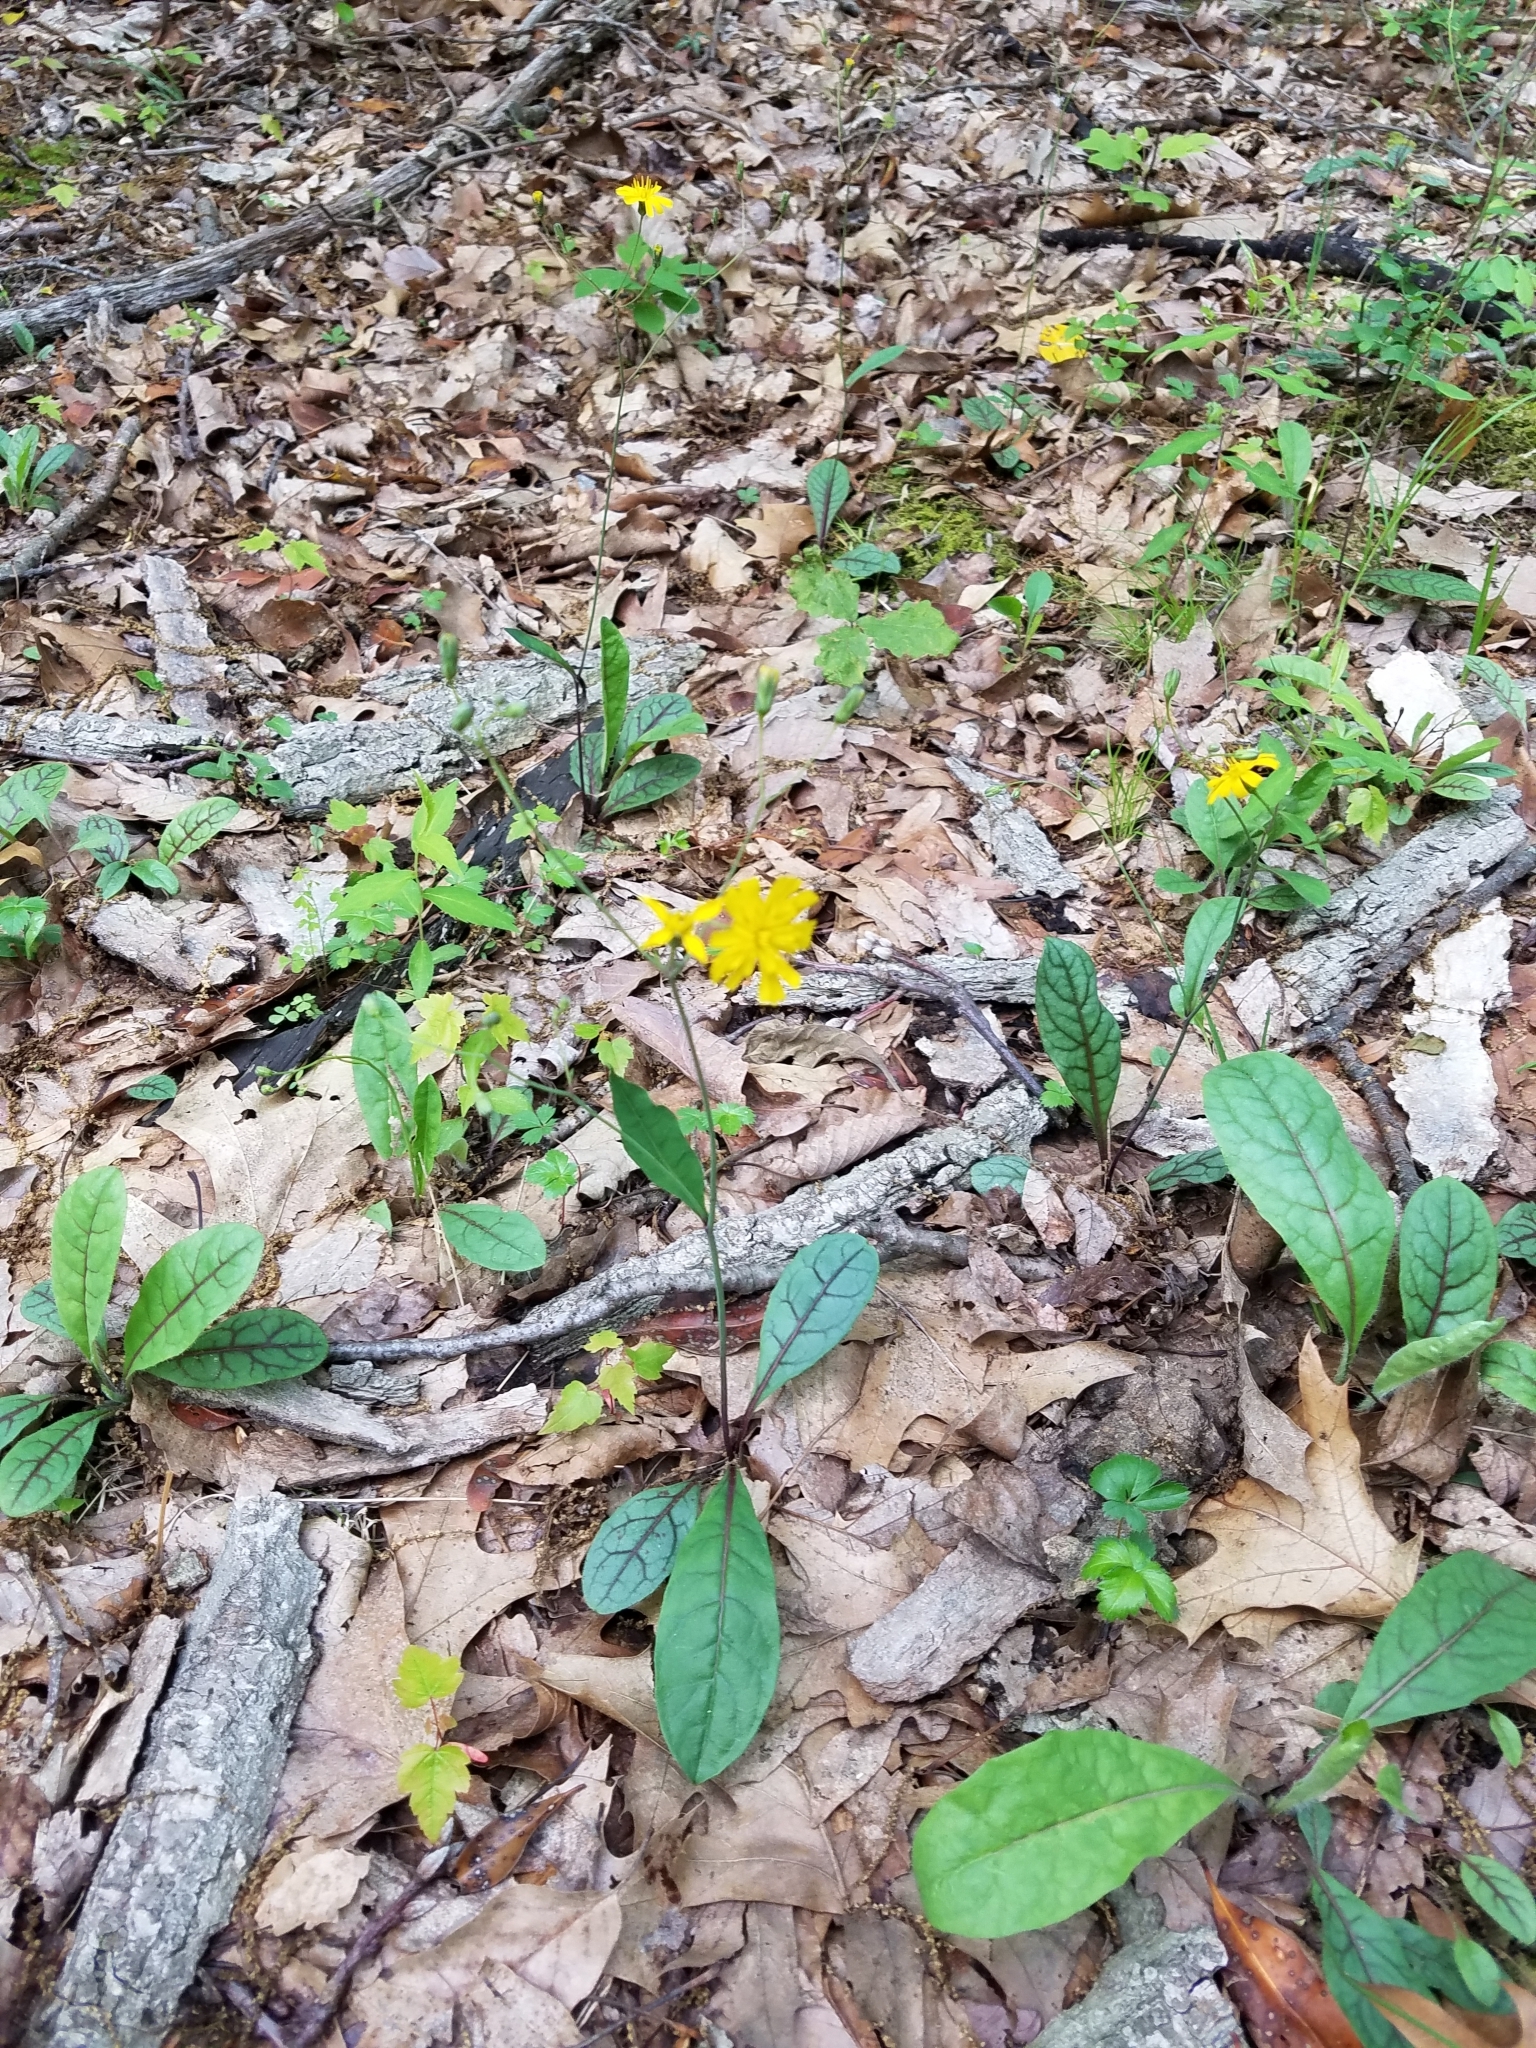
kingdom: Plantae
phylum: Tracheophyta
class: Magnoliopsida
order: Asterales
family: Asteraceae
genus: Hieracium
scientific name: Hieracium venosum
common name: Rattlesnake hawkweed
